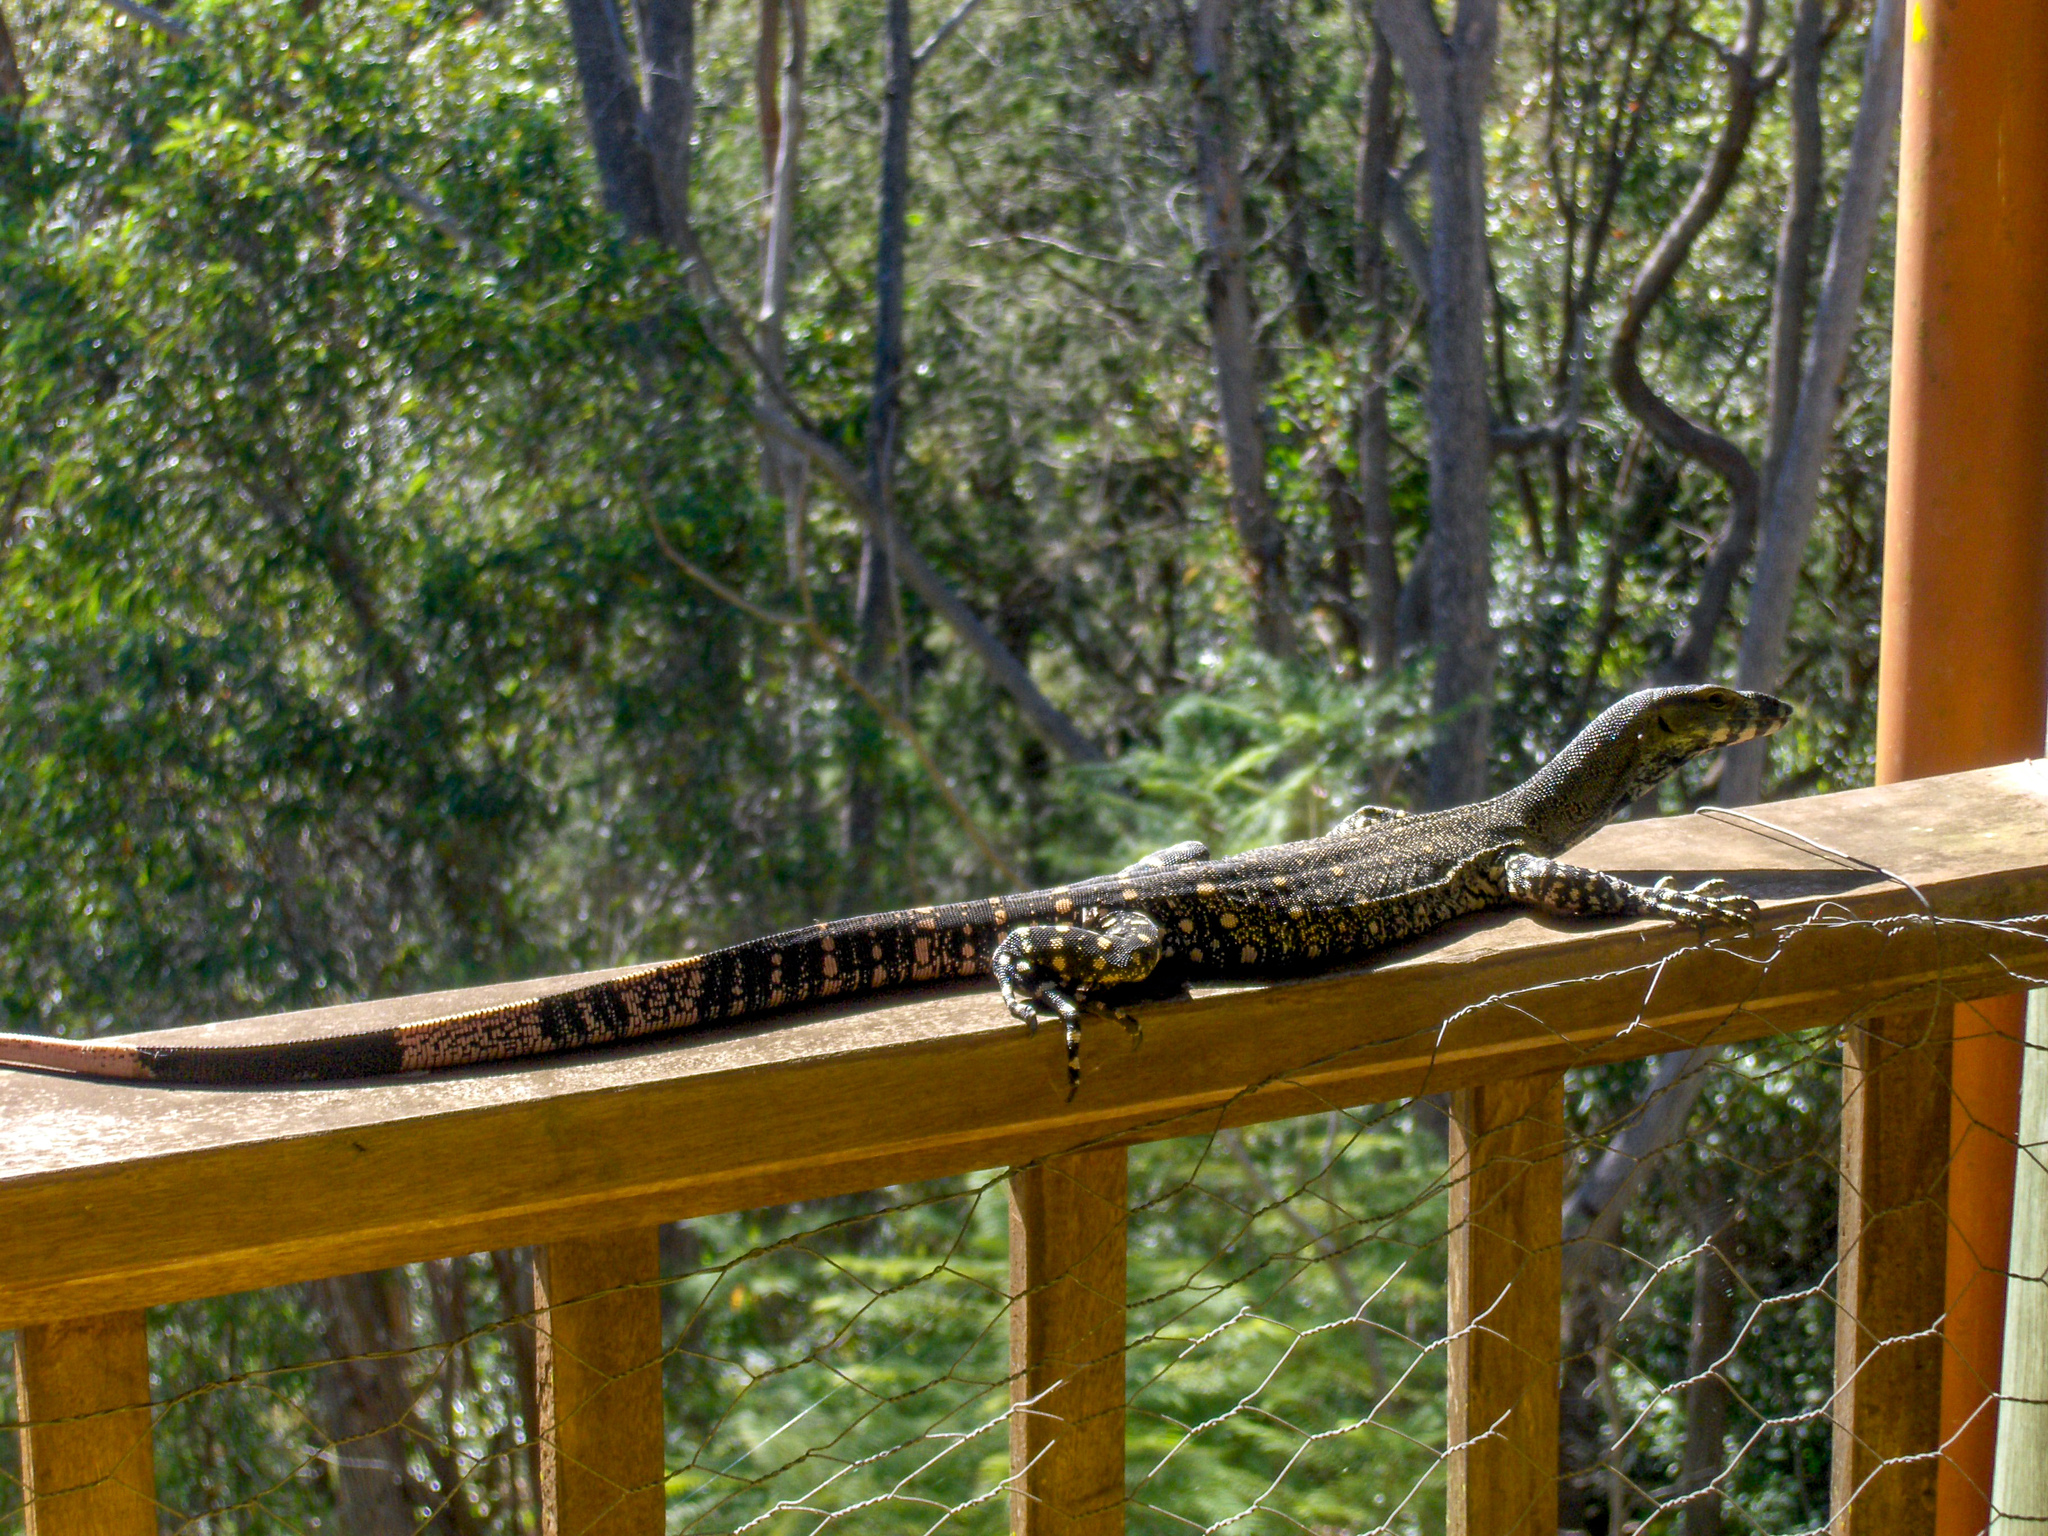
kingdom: Animalia
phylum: Chordata
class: Squamata
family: Varanidae
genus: Varanus
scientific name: Varanus varius
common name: Lace monitor
